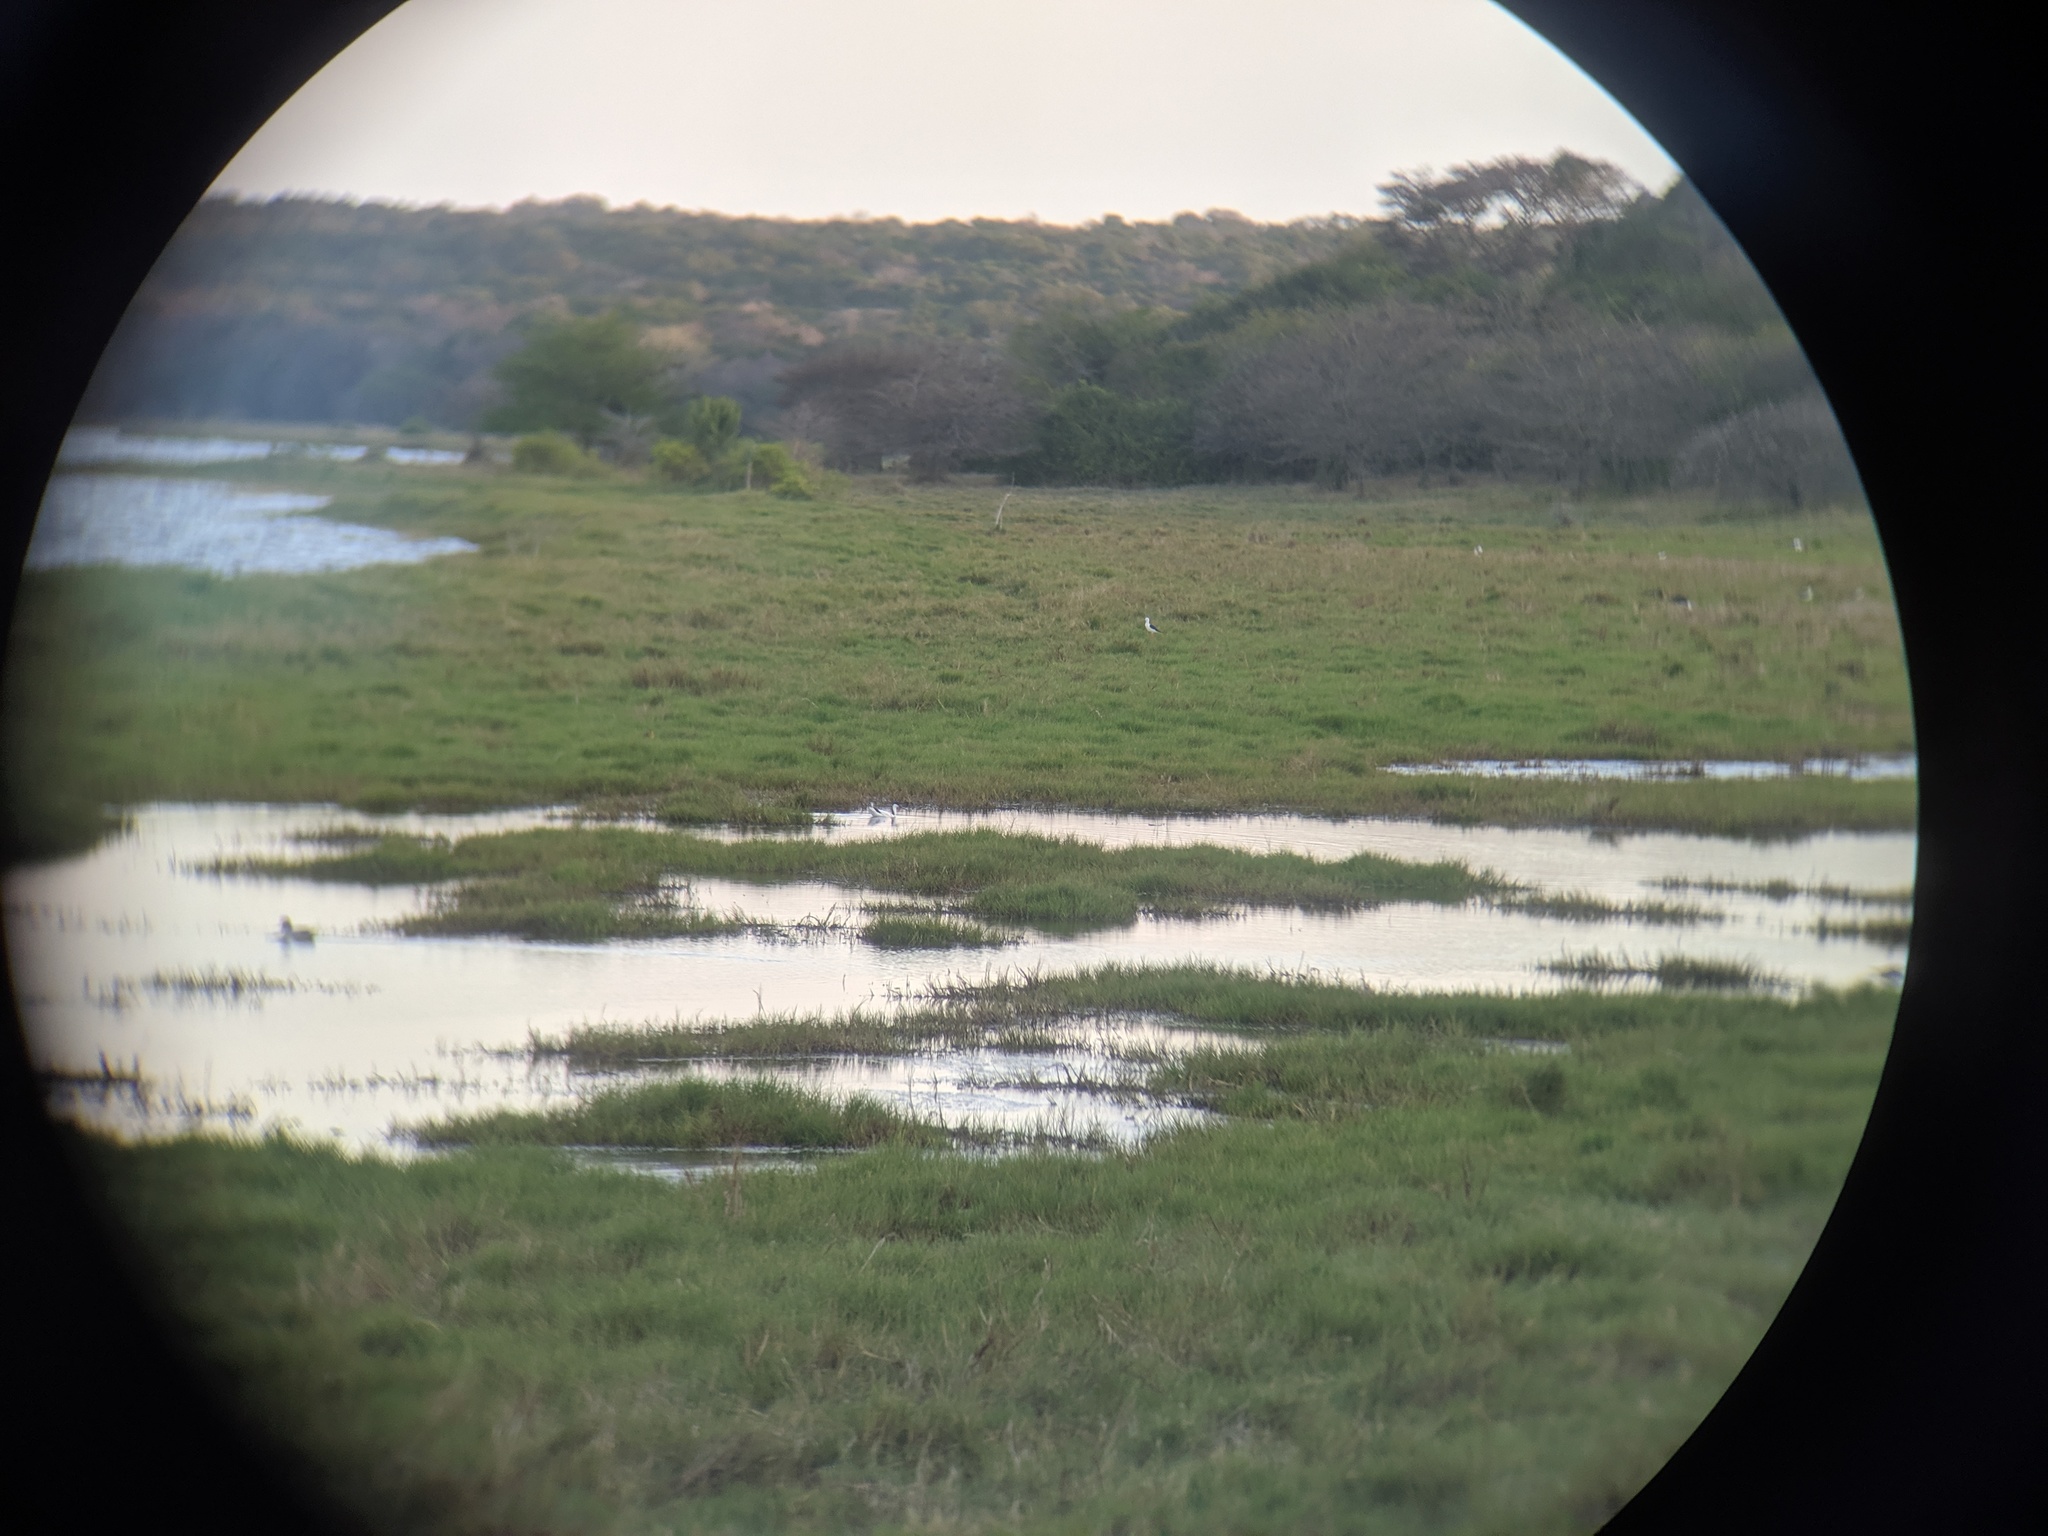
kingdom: Animalia
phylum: Chordata
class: Aves
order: Charadriiformes
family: Recurvirostridae
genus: Recurvirostra
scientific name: Recurvirostra avosetta
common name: Pied avocet
